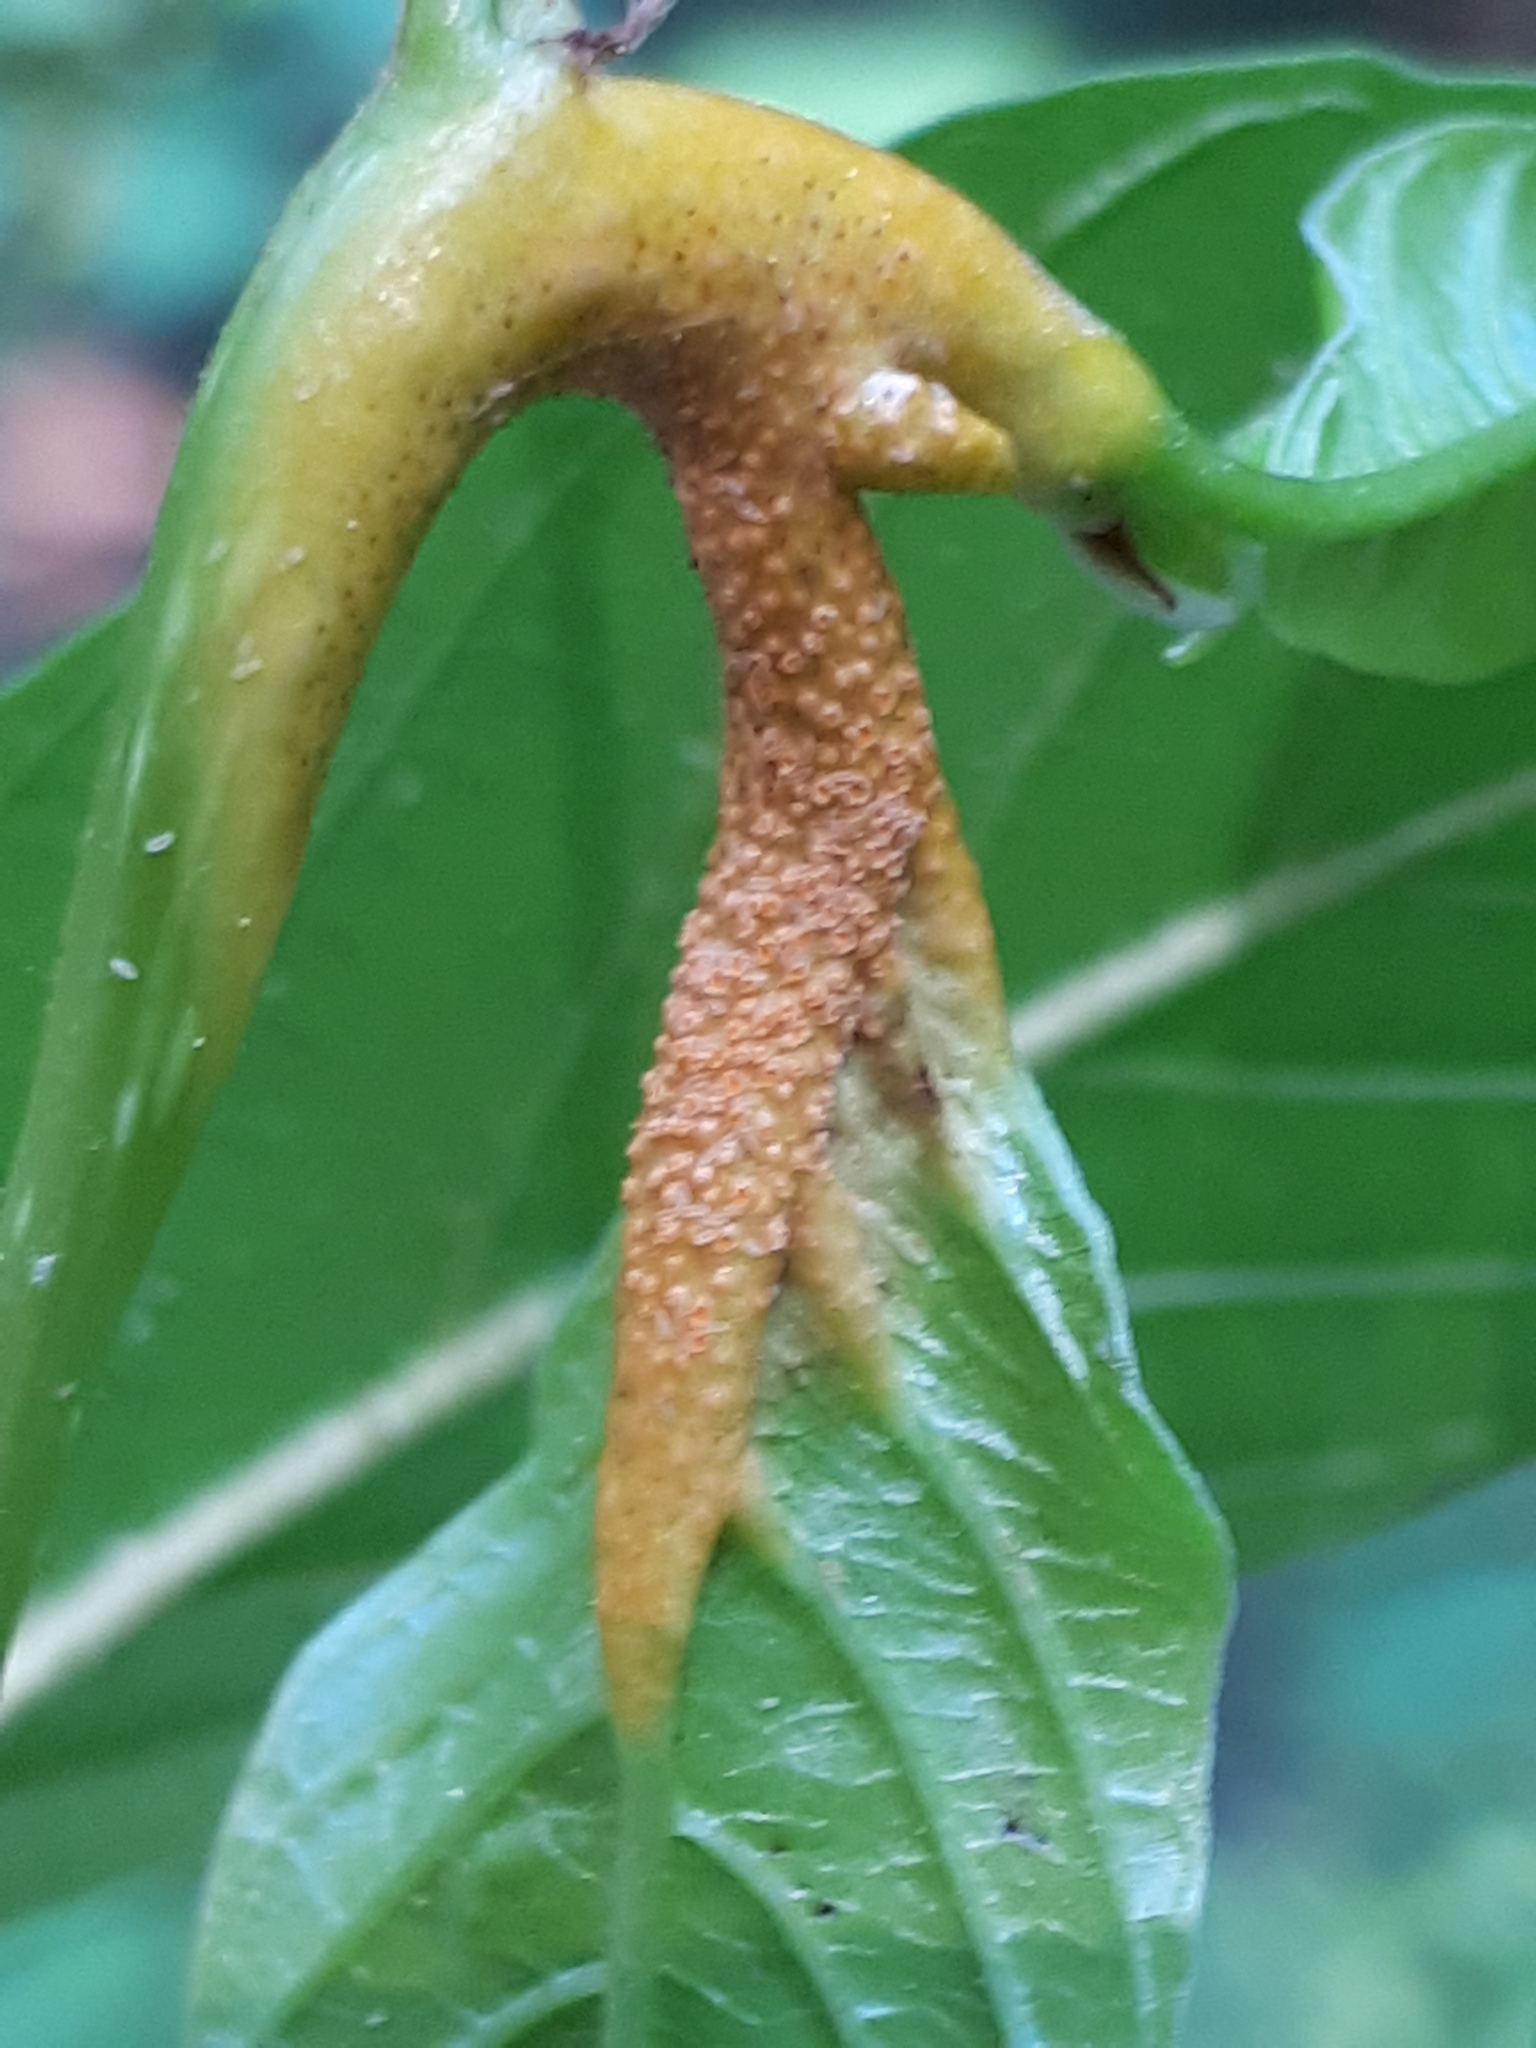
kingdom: Fungi
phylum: Basidiomycota
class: Pucciniomycetes
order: Pucciniales
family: Pucciniaceae
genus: Puccinia
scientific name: Puccinia coronata
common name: Crown rust
